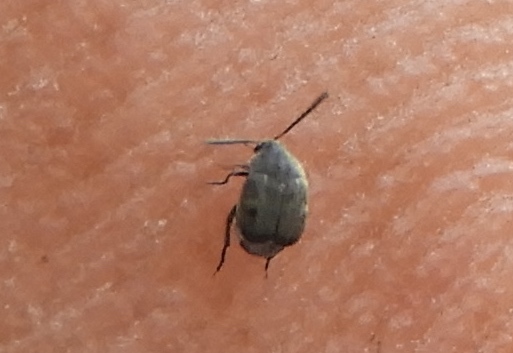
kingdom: Animalia
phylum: Arthropoda
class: Insecta
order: Coleoptera
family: Bruchidae
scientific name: Bruchidae
